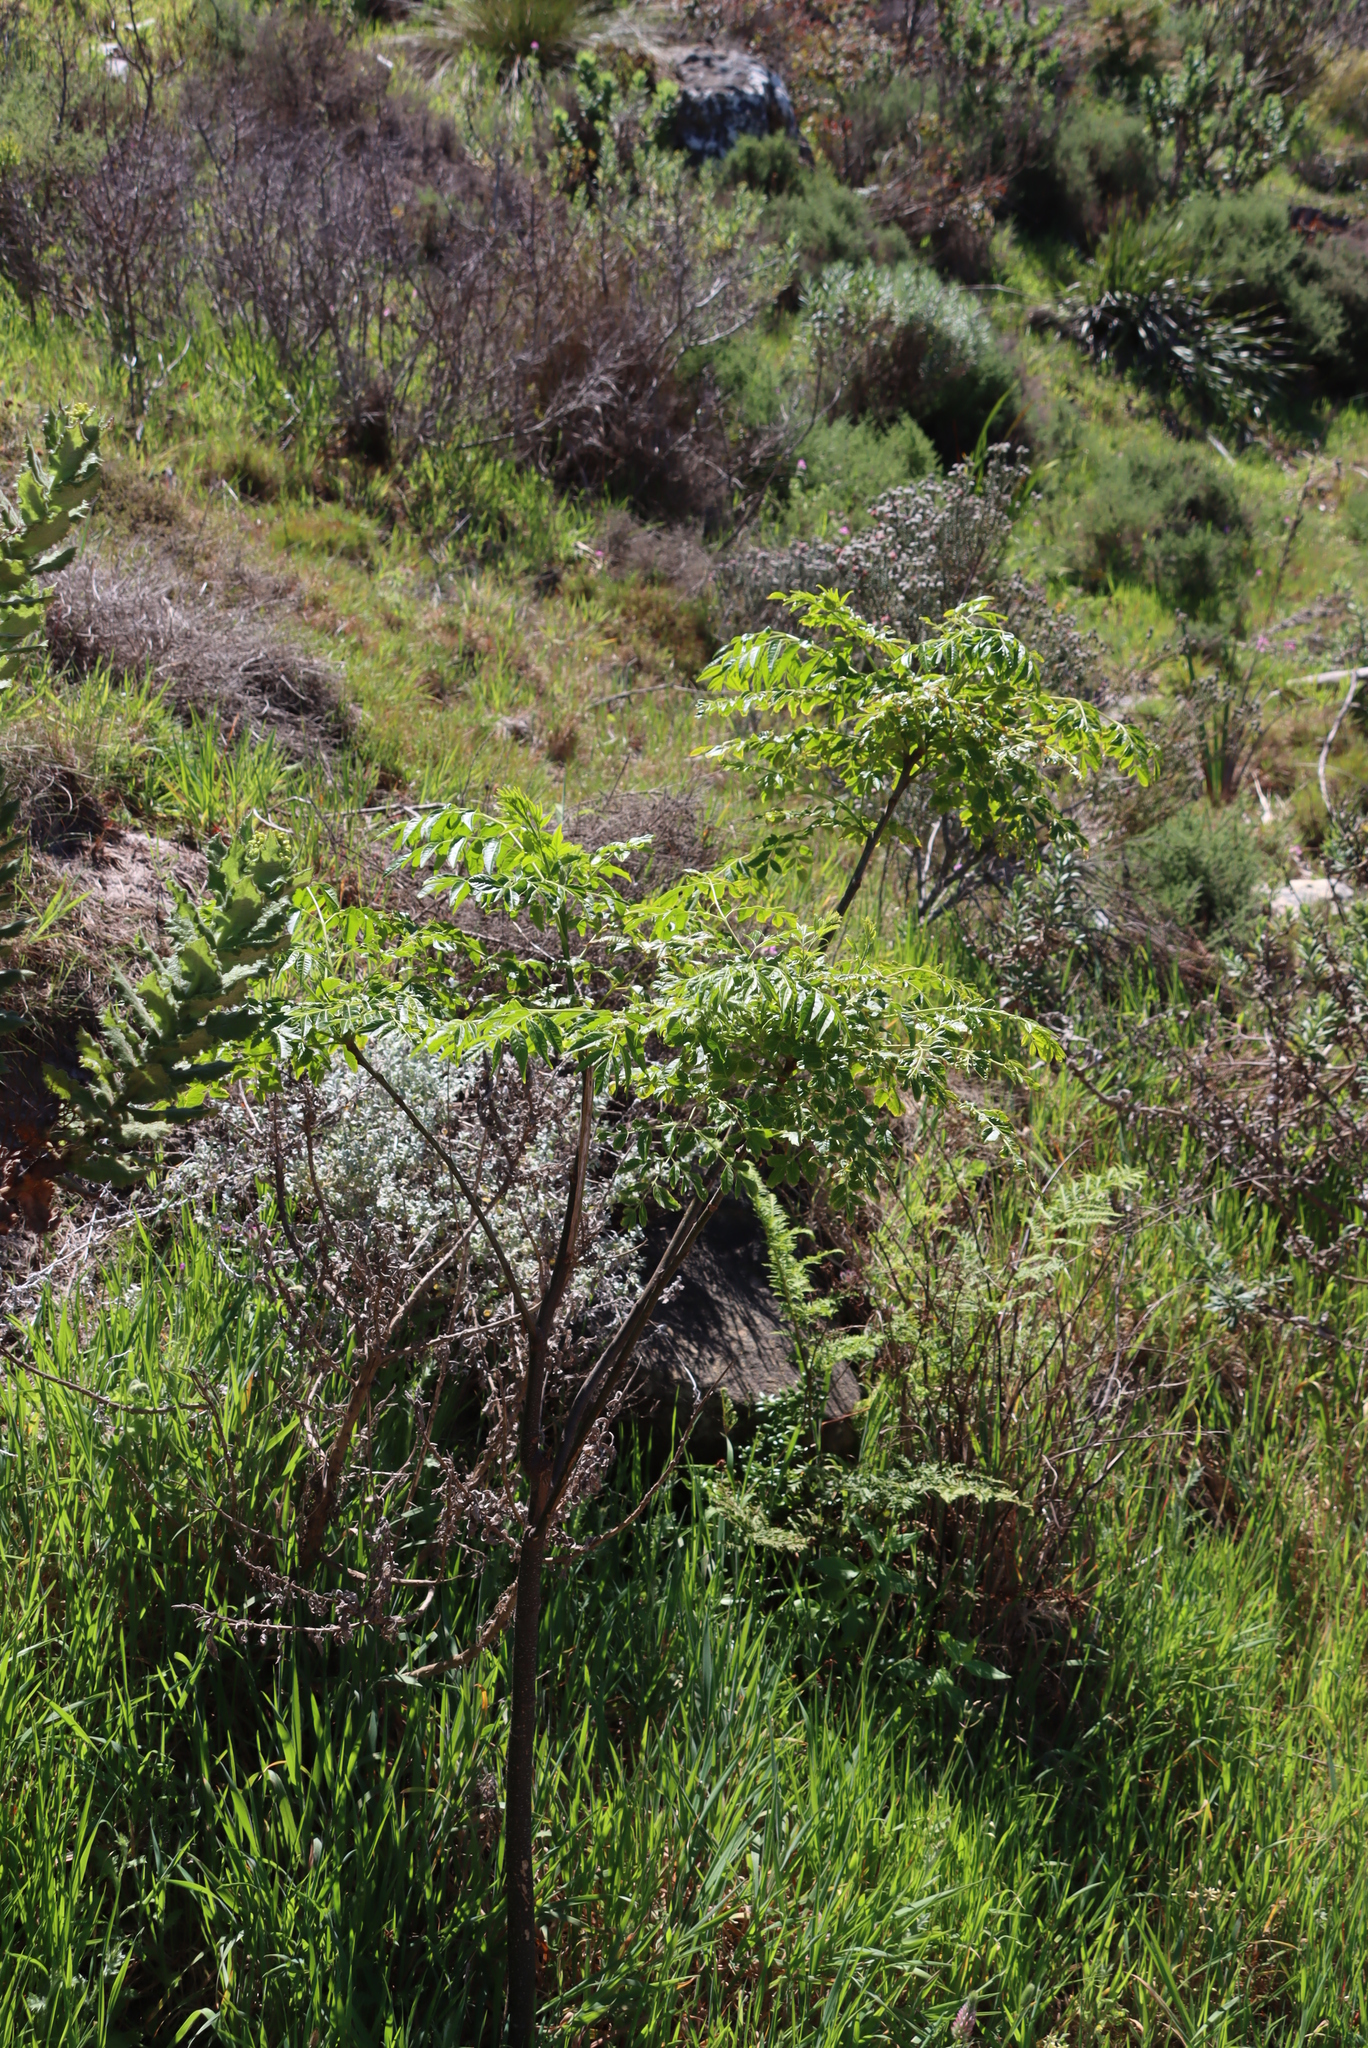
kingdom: Plantae
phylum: Tracheophyta
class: Magnoliopsida
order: Sapindales
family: Meliaceae
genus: Melia
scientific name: Melia azedarach
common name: Chinaberrytree
